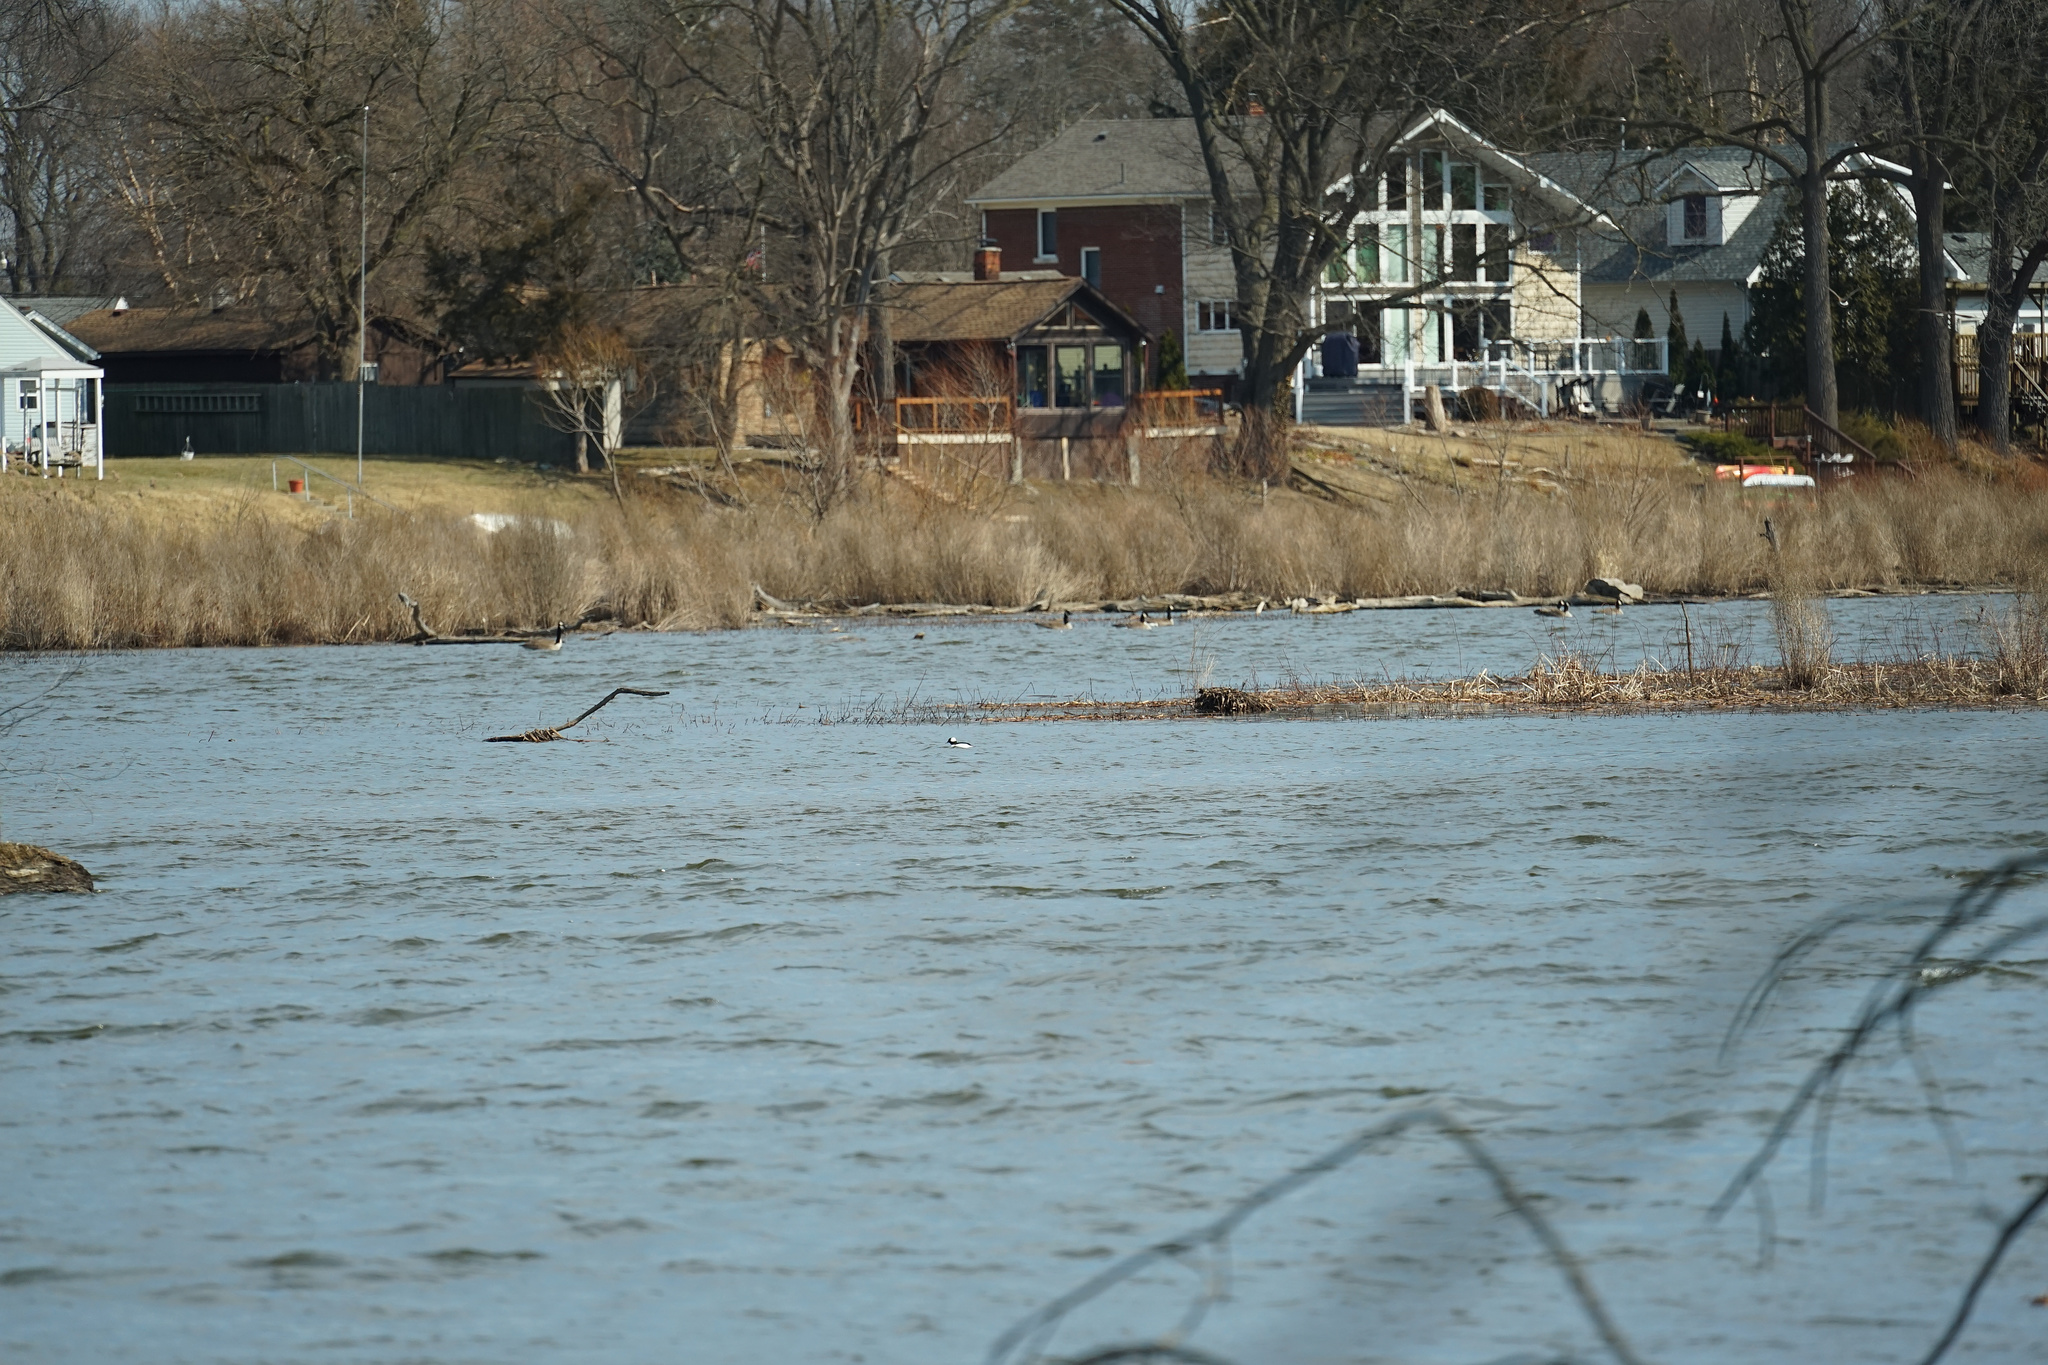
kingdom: Animalia
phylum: Chordata
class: Aves
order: Anseriformes
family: Anatidae
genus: Bucephala
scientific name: Bucephala albeola
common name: Bufflehead
